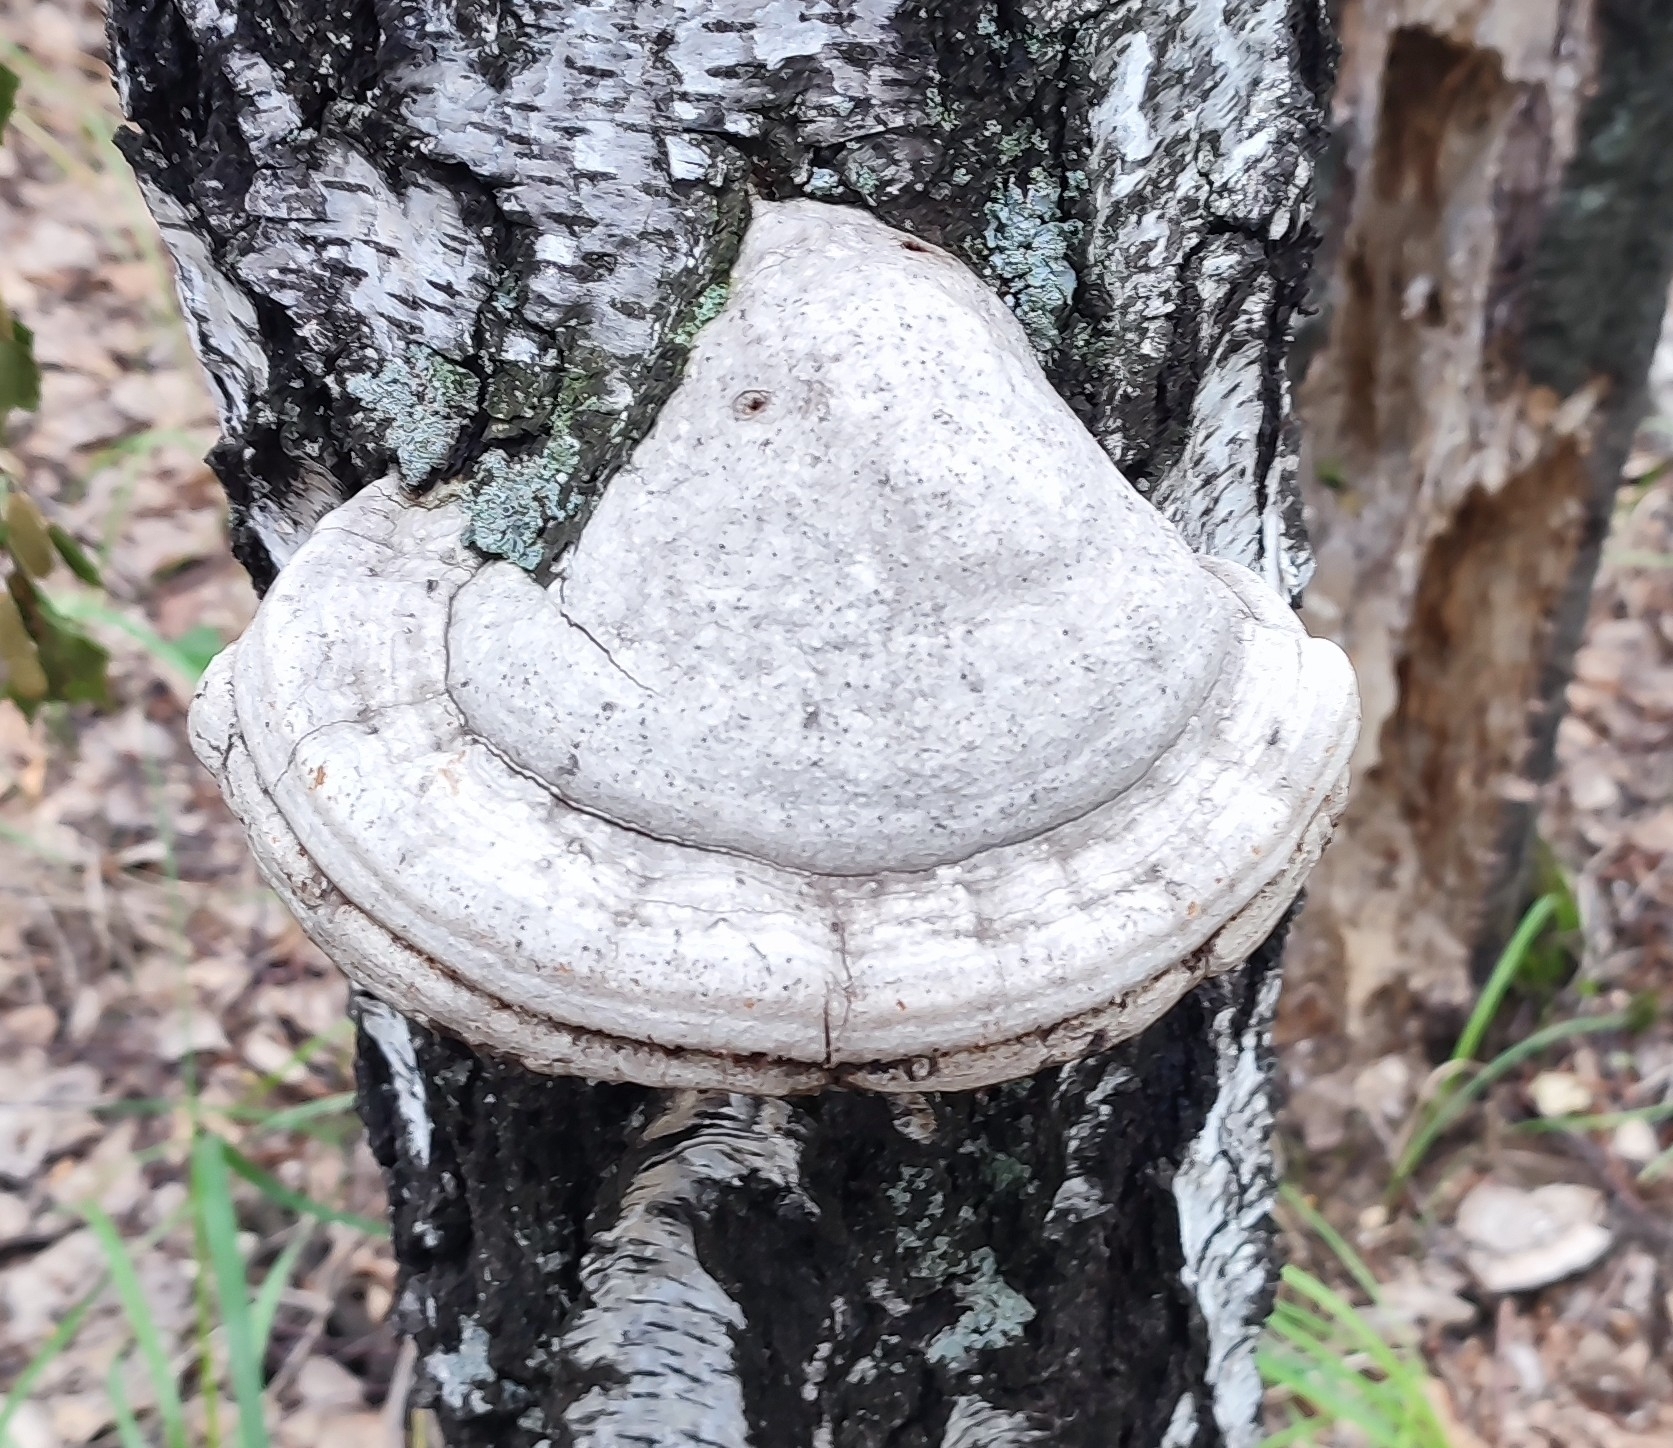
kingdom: Fungi
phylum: Basidiomycota
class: Agaricomycetes
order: Polyporales
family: Polyporaceae
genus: Fomes
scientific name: Fomes fomentarius
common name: Hoof fungus
